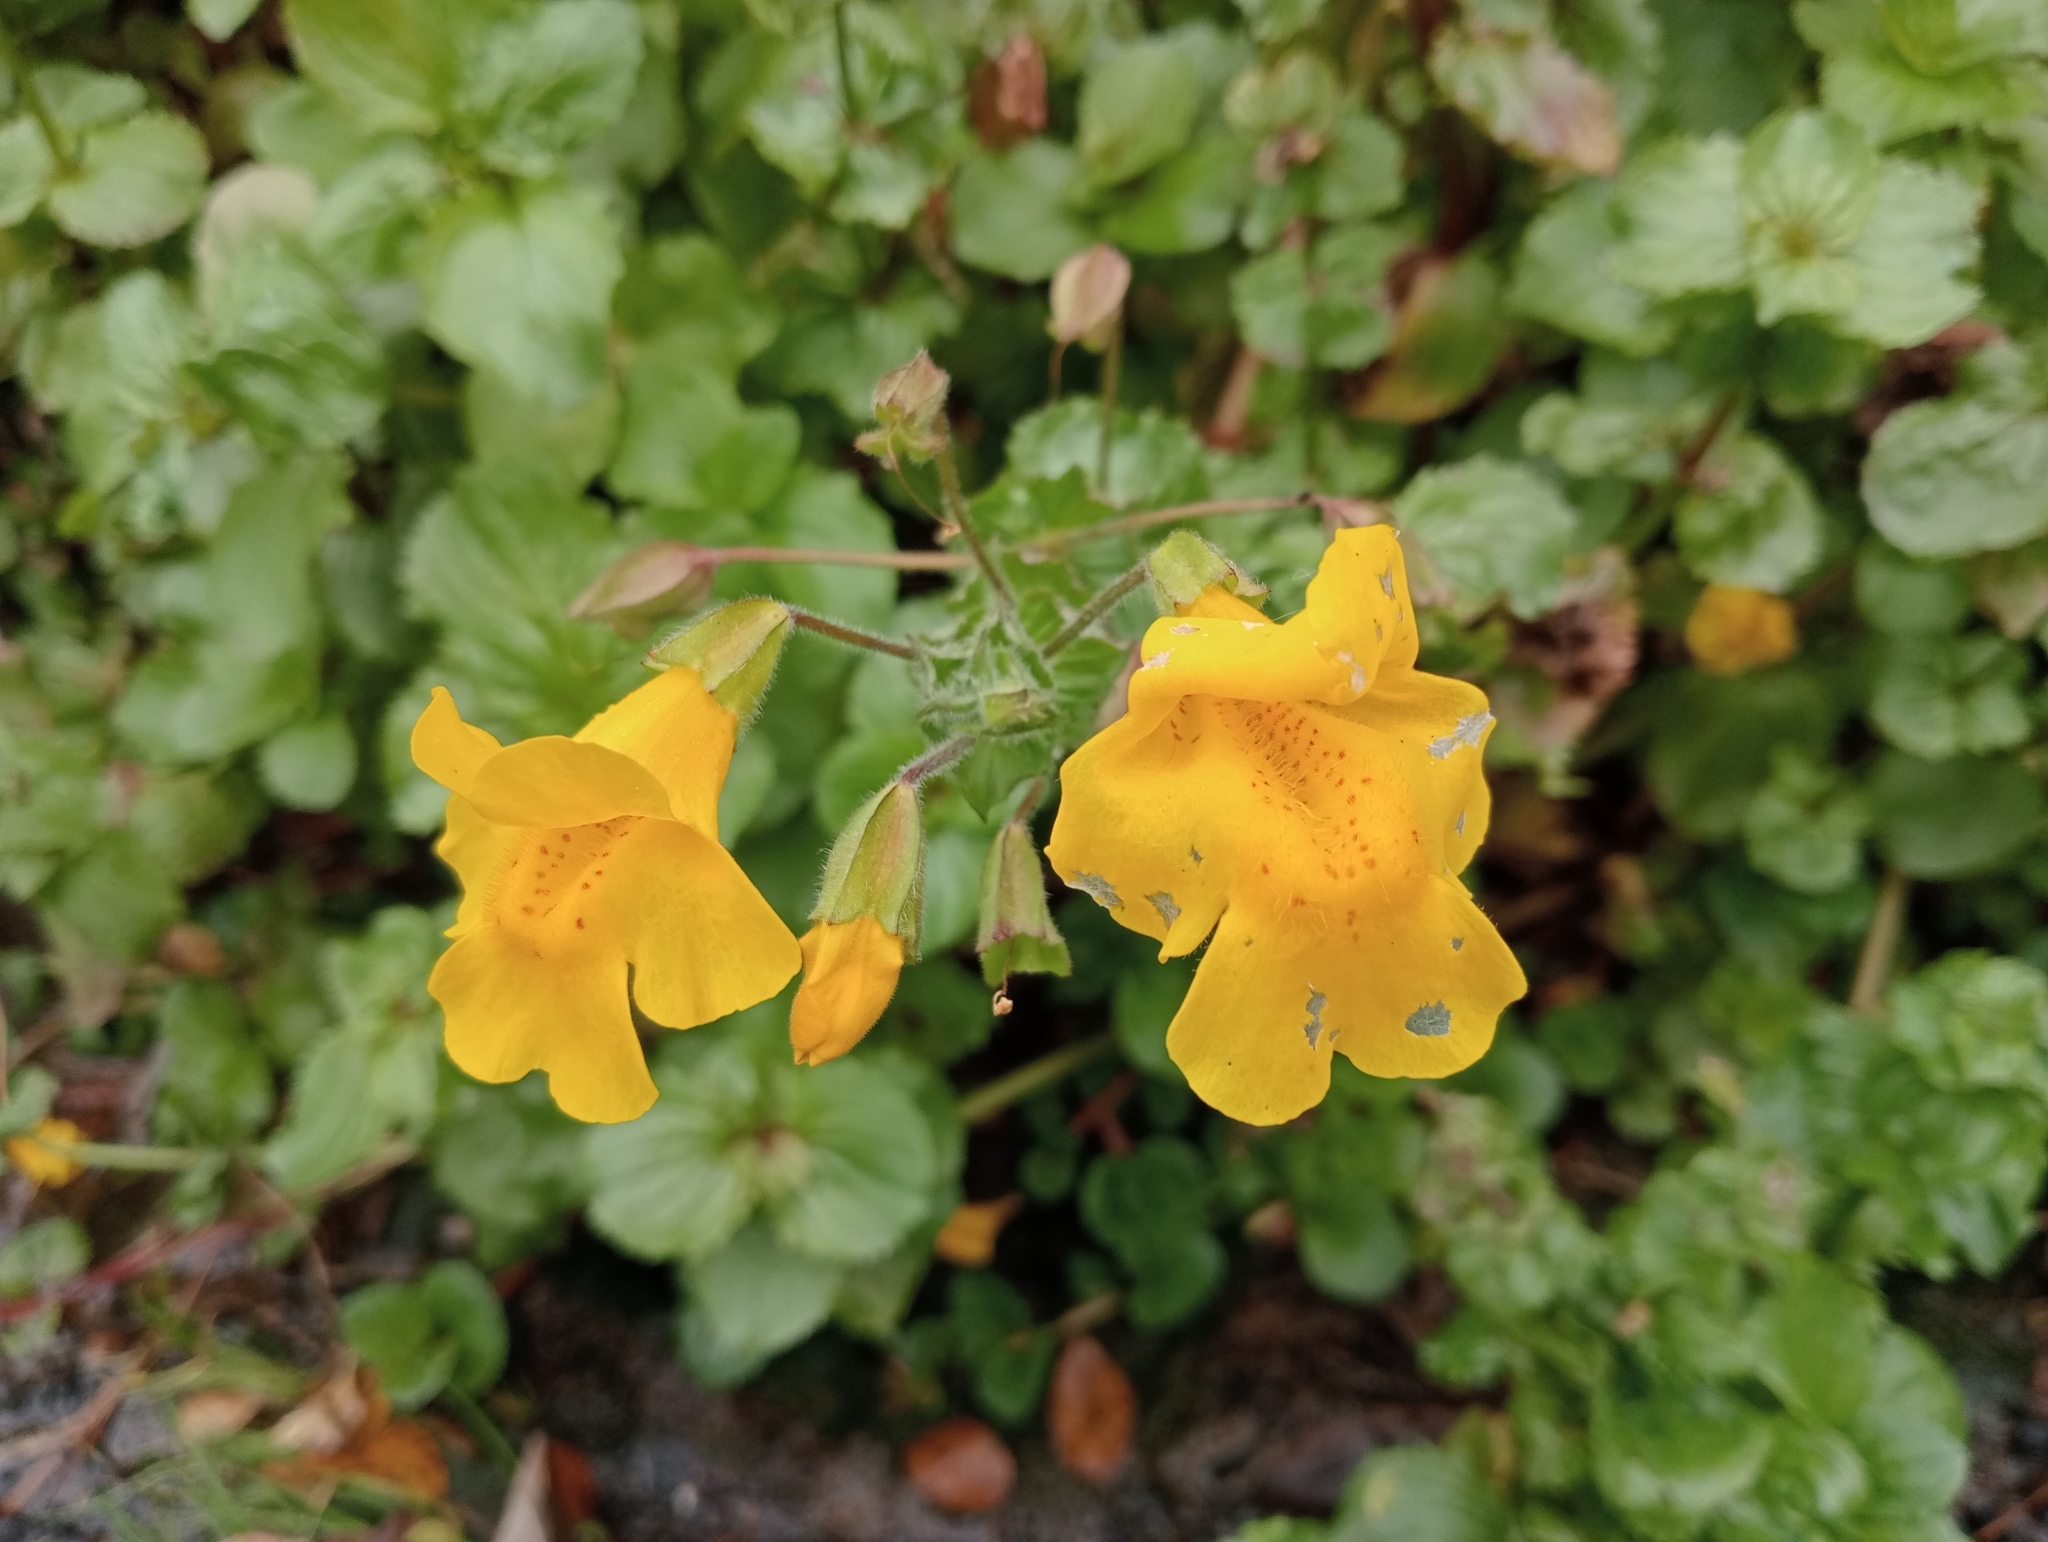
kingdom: Plantae
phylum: Tracheophyta
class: Magnoliopsida
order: Lamiales
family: Phrymaceae
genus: Erythranthe
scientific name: Erythranthe guttata
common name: Monkeyflower
